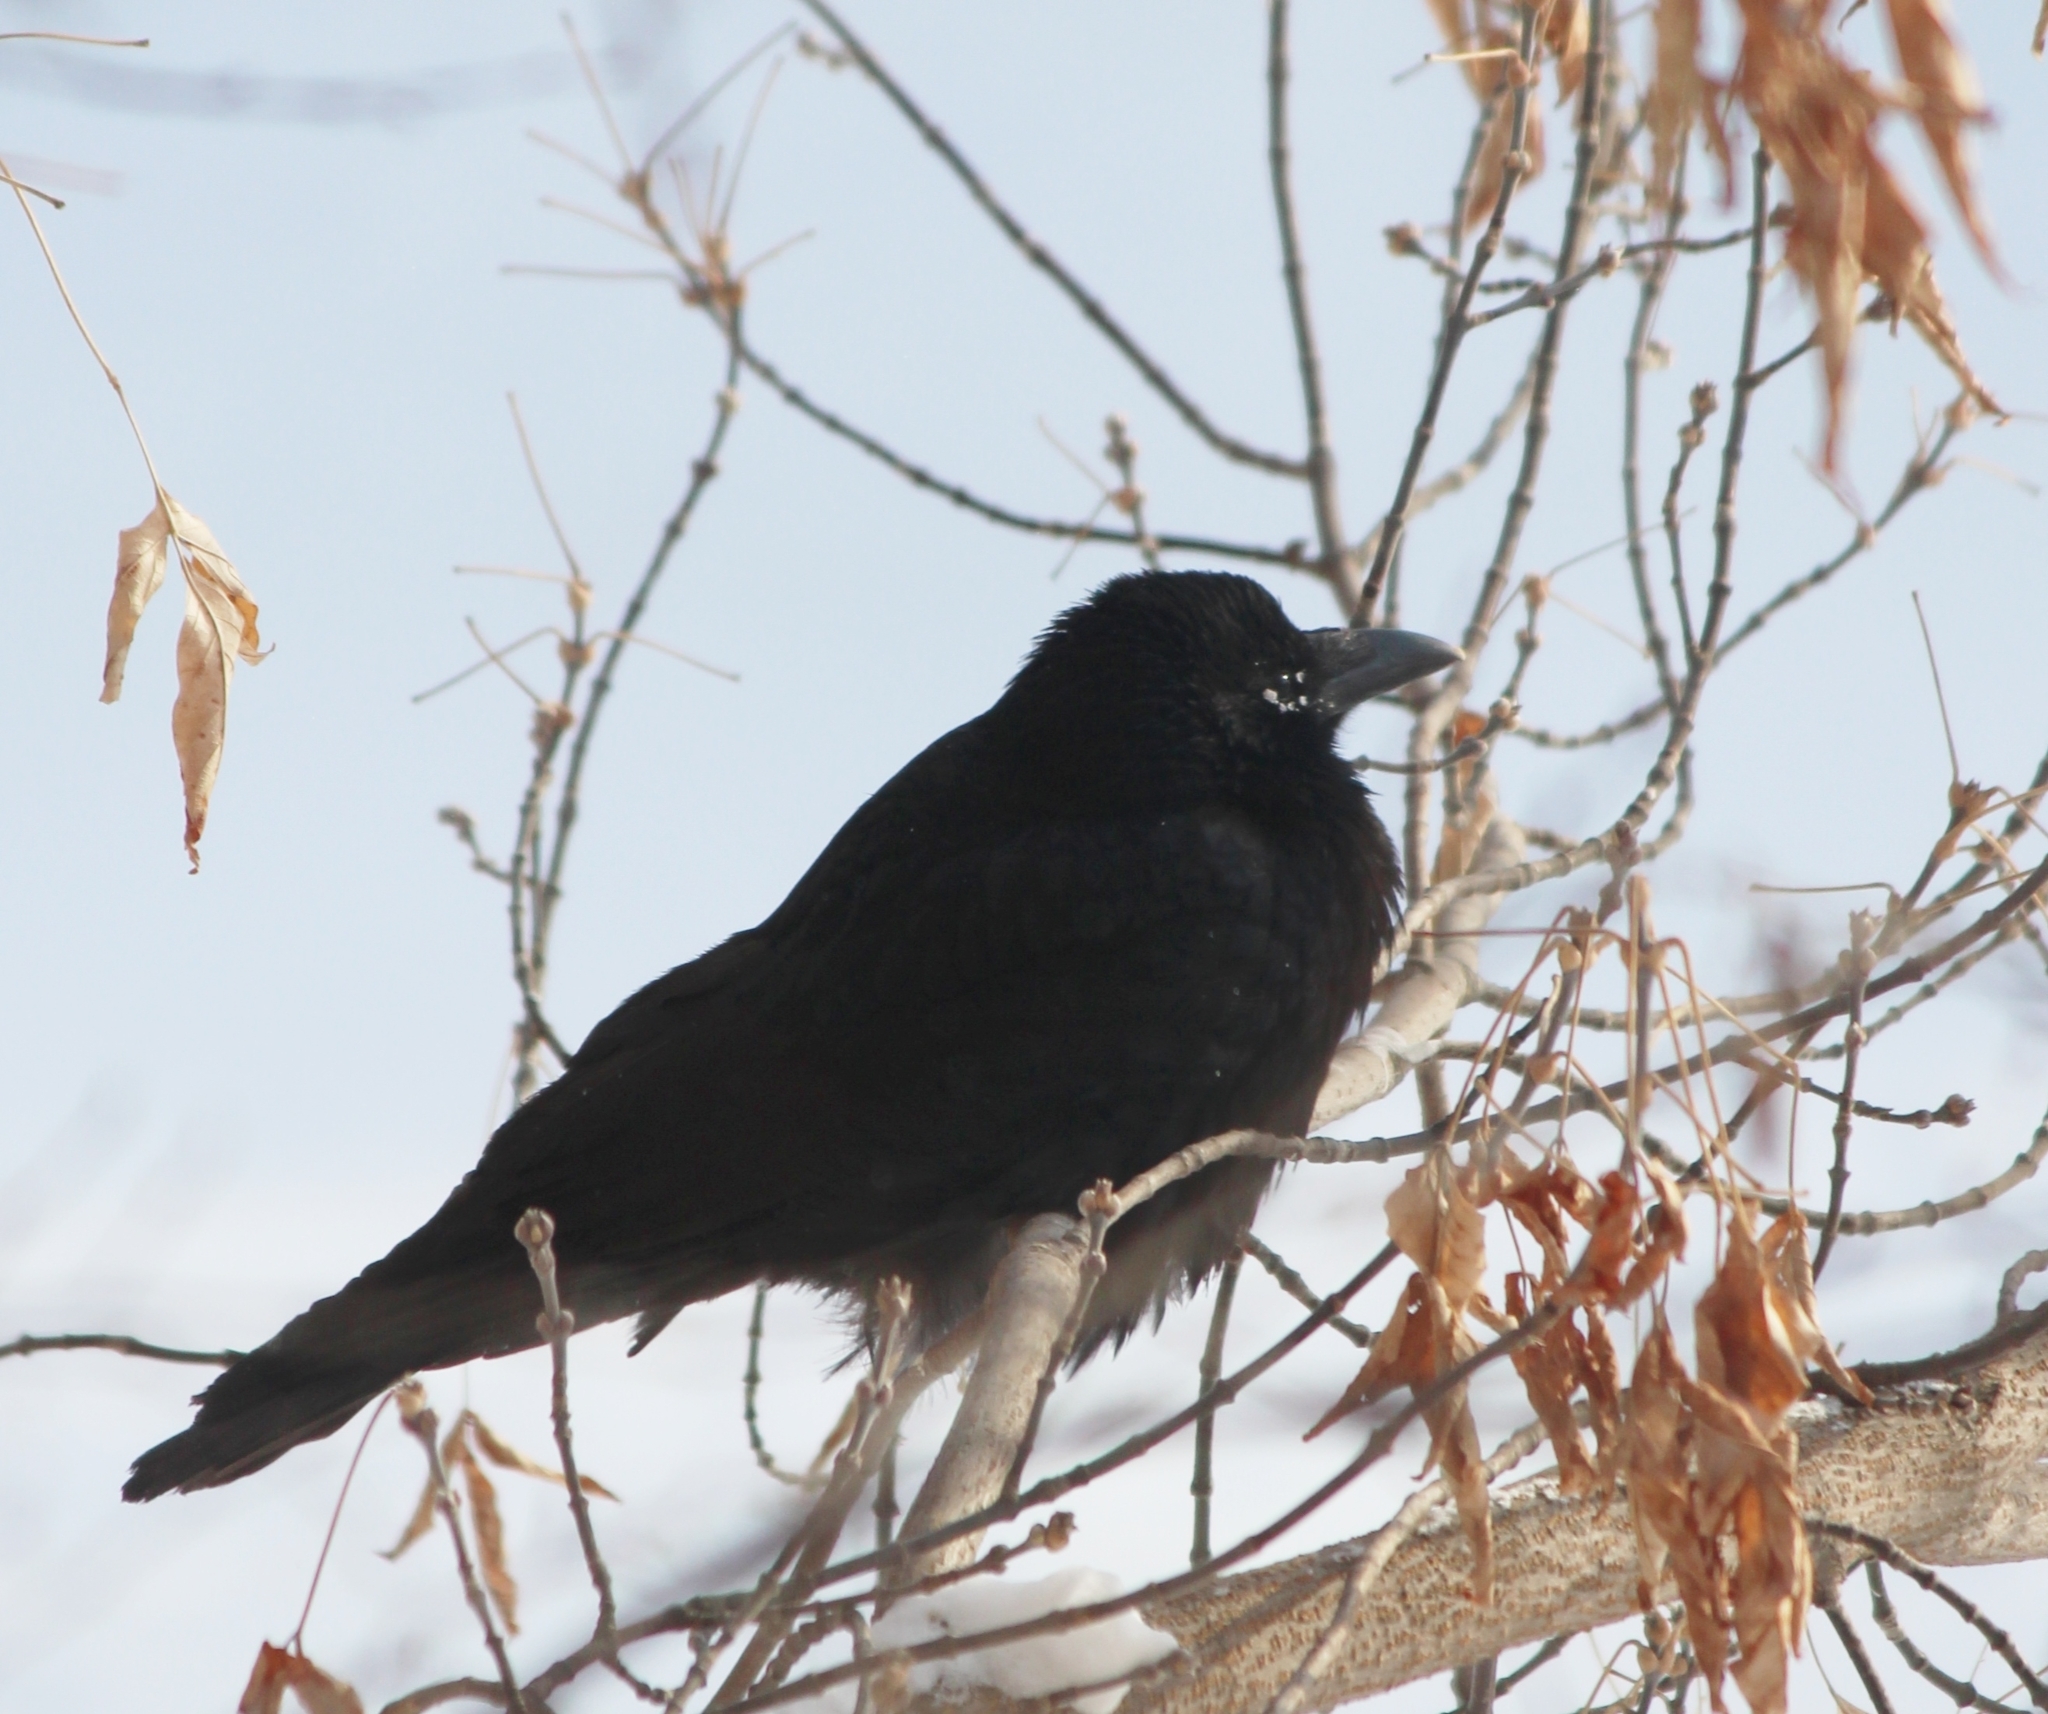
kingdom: Animalia
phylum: Chordata
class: Aves
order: Passeriformes
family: Corvidae
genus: Corvus
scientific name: Corvus corone
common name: Carrion crow
